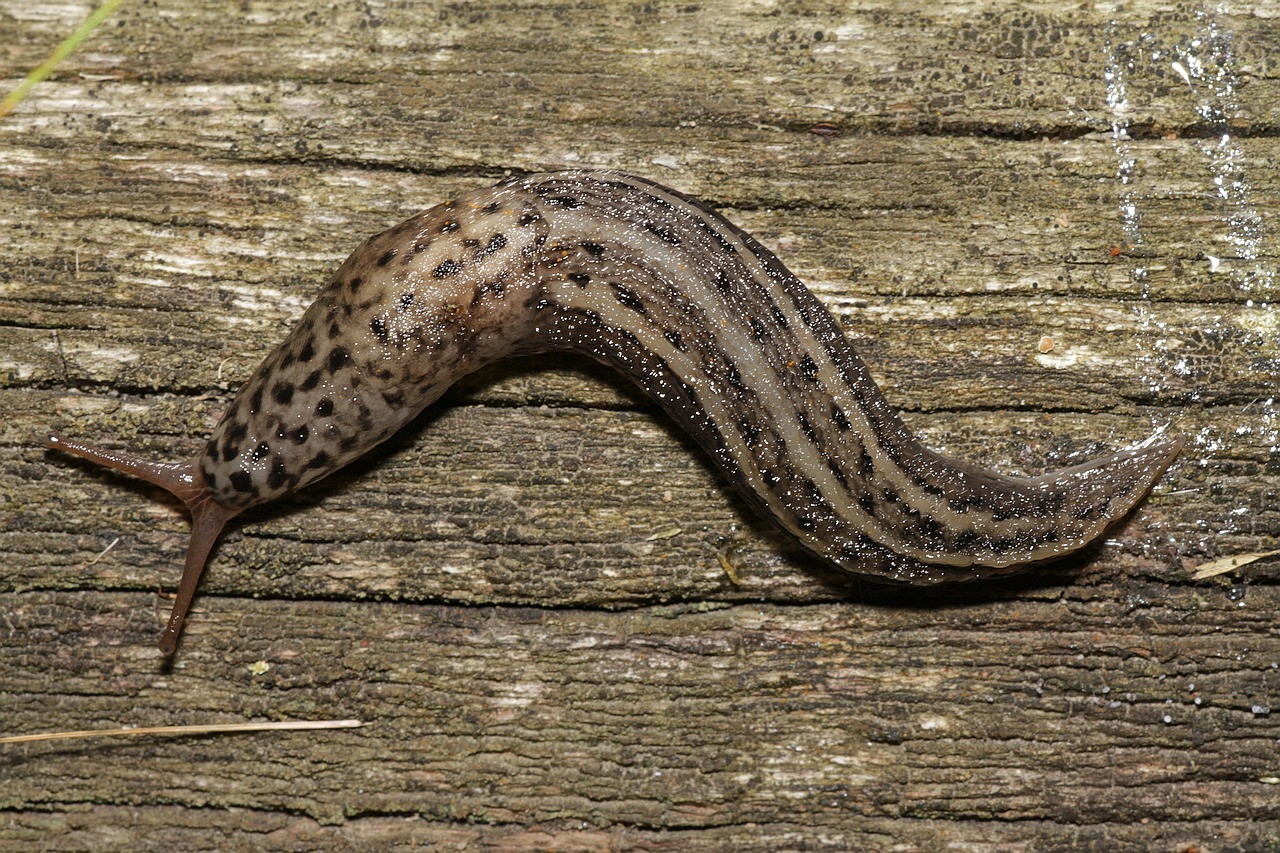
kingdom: Animalia
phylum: Mollusca
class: Gastropoda
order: Stylommatophora
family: Limacidae
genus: Limax
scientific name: Limax maximus
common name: Great grey slug
